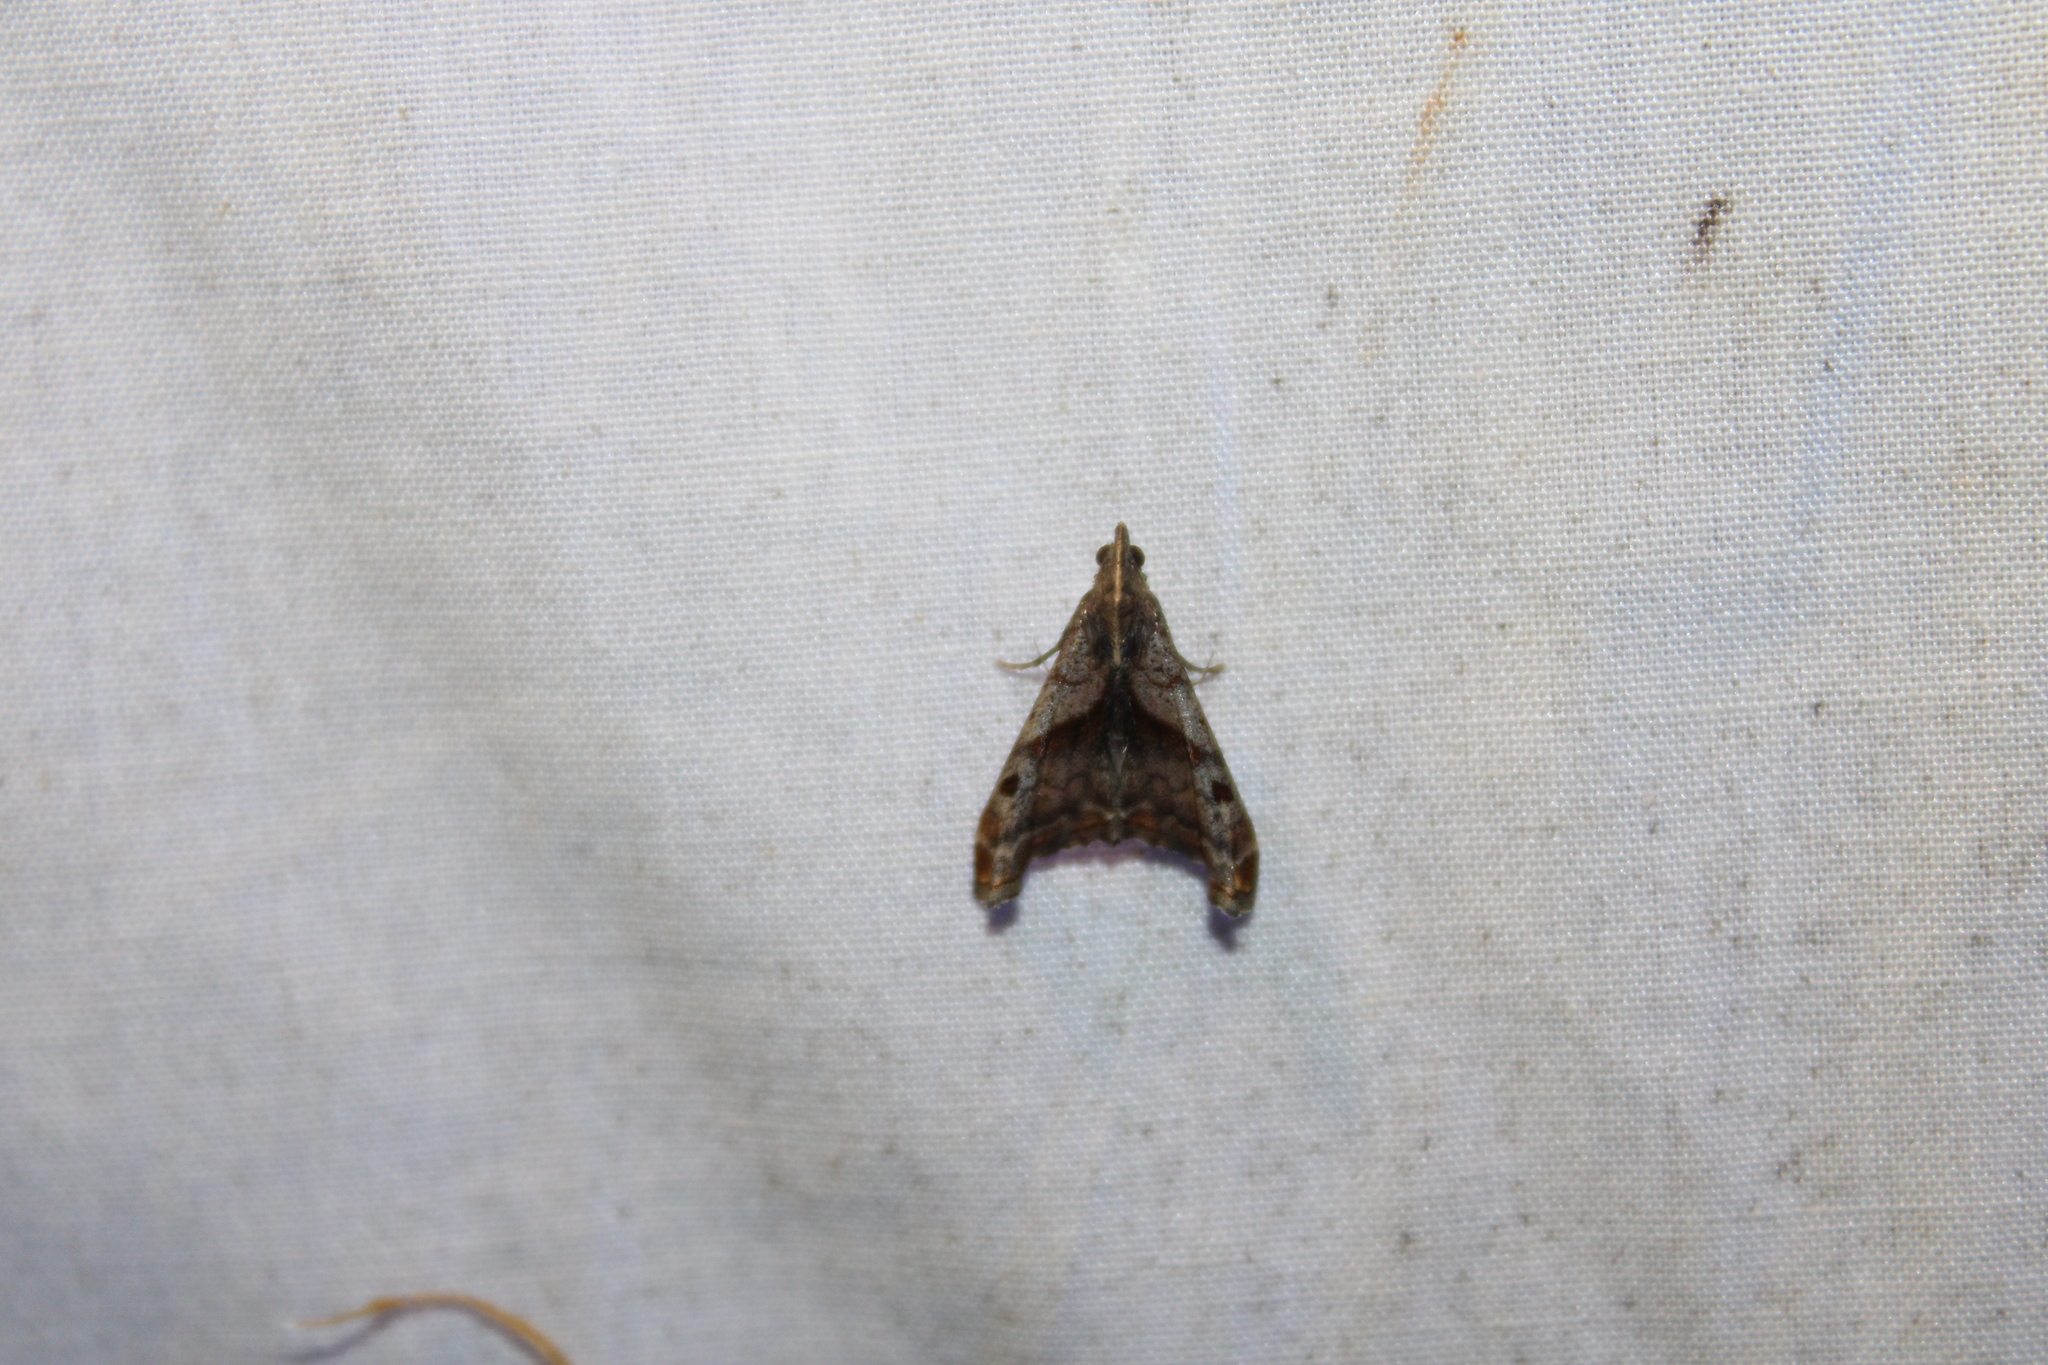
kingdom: Animalia
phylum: Arthropoda
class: Insecta
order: Lepidoptera
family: Erebidae
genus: Palthis
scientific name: Palthis angulalis
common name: Dark-spotted palthis moth
